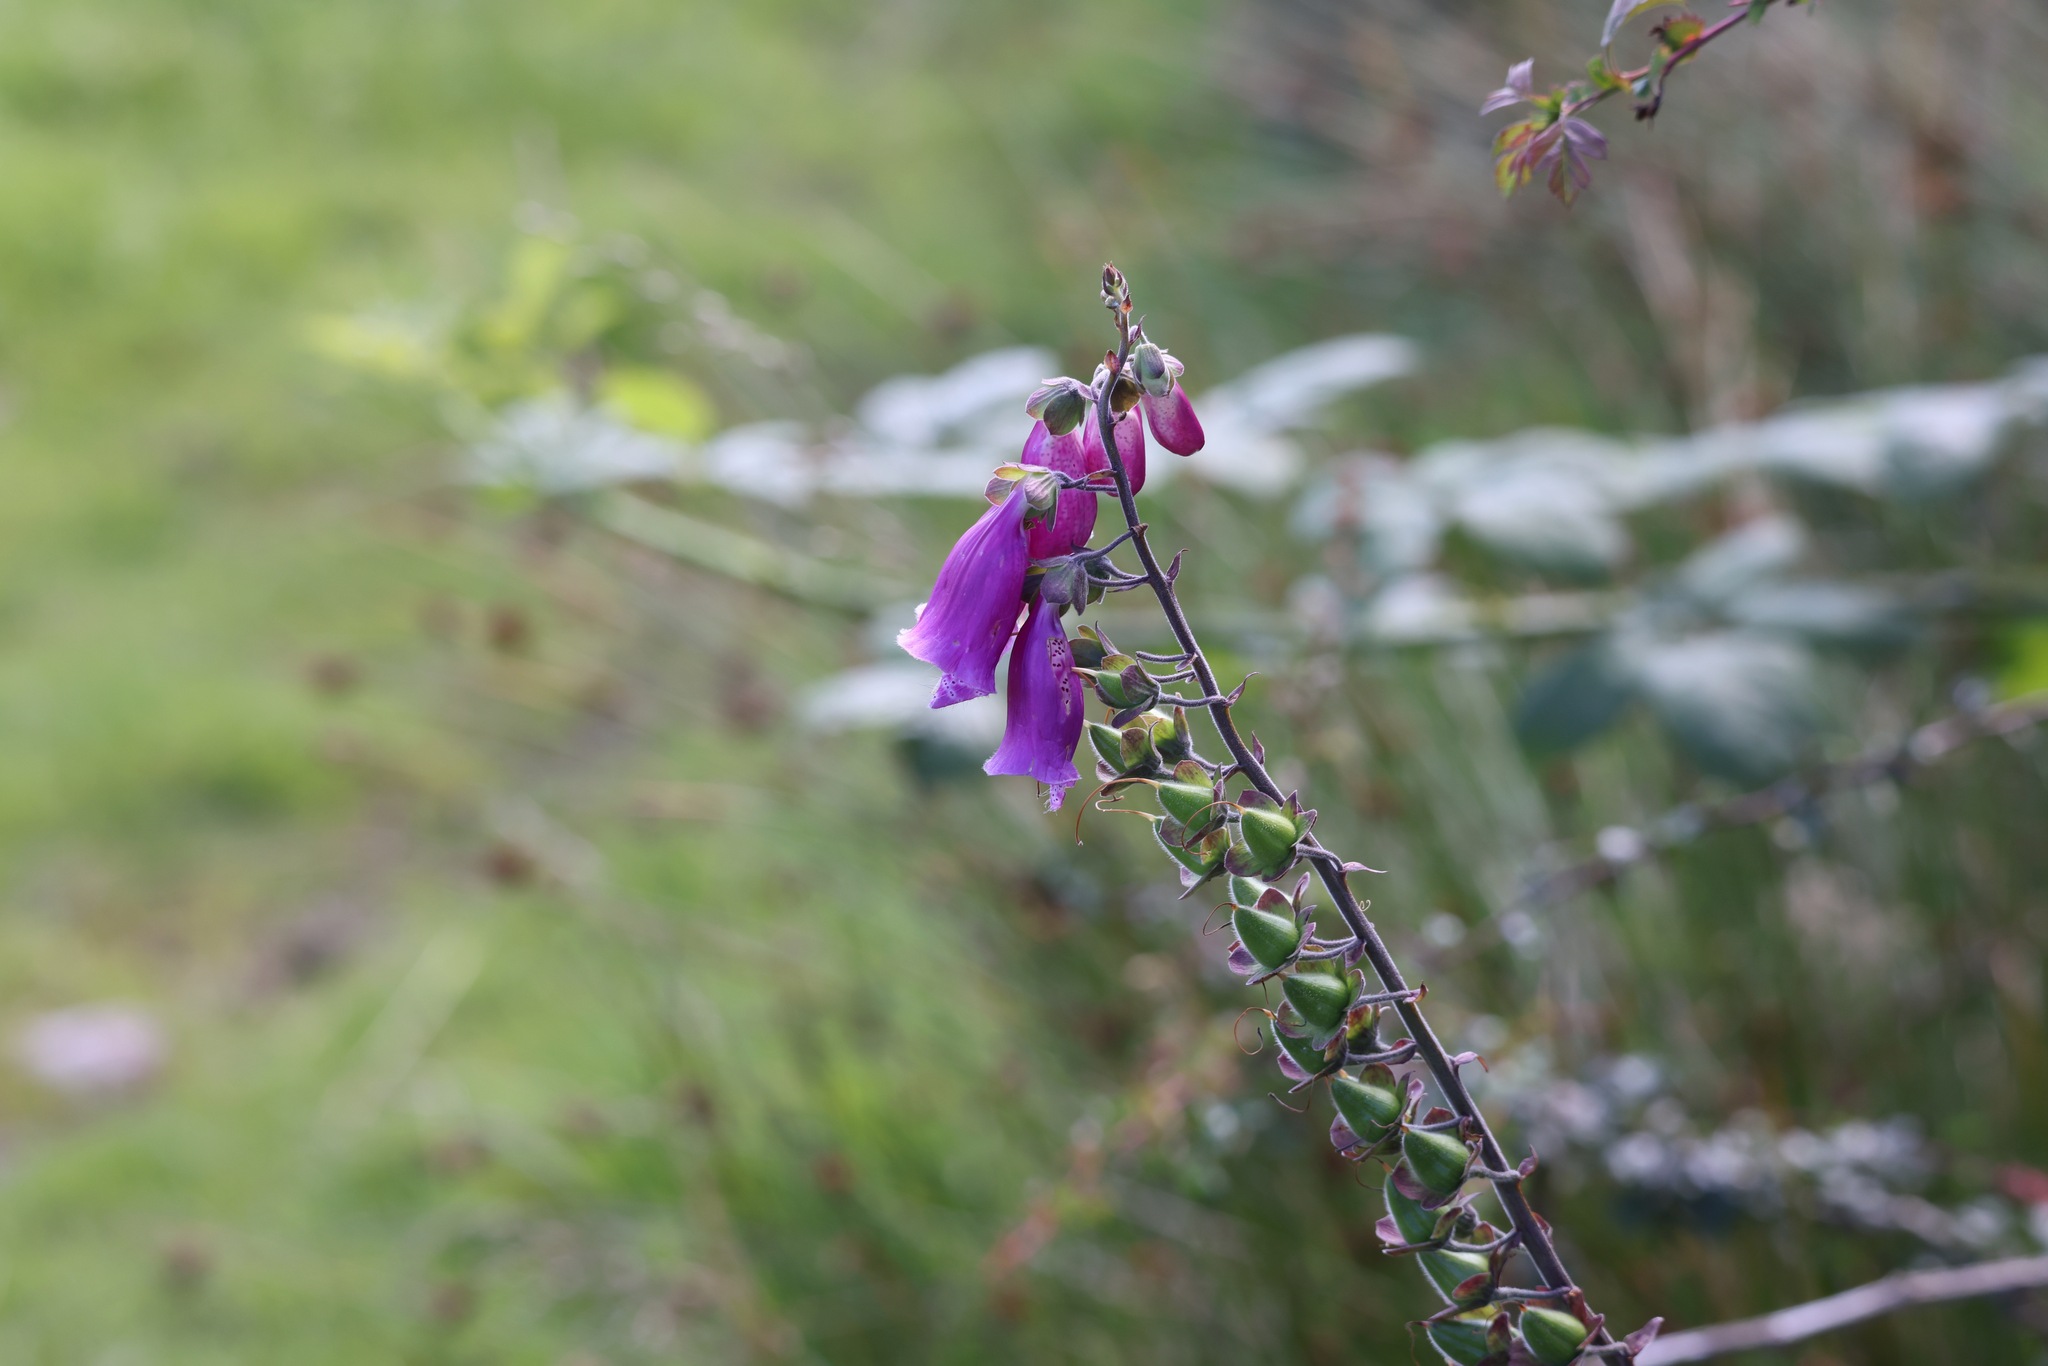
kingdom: Plantae
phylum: Tracheophyta
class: Magnoliopsida
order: Lamiales
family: Plantaginaceae
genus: Digitalis
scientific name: Digitalis purpurea
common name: Foxglove
